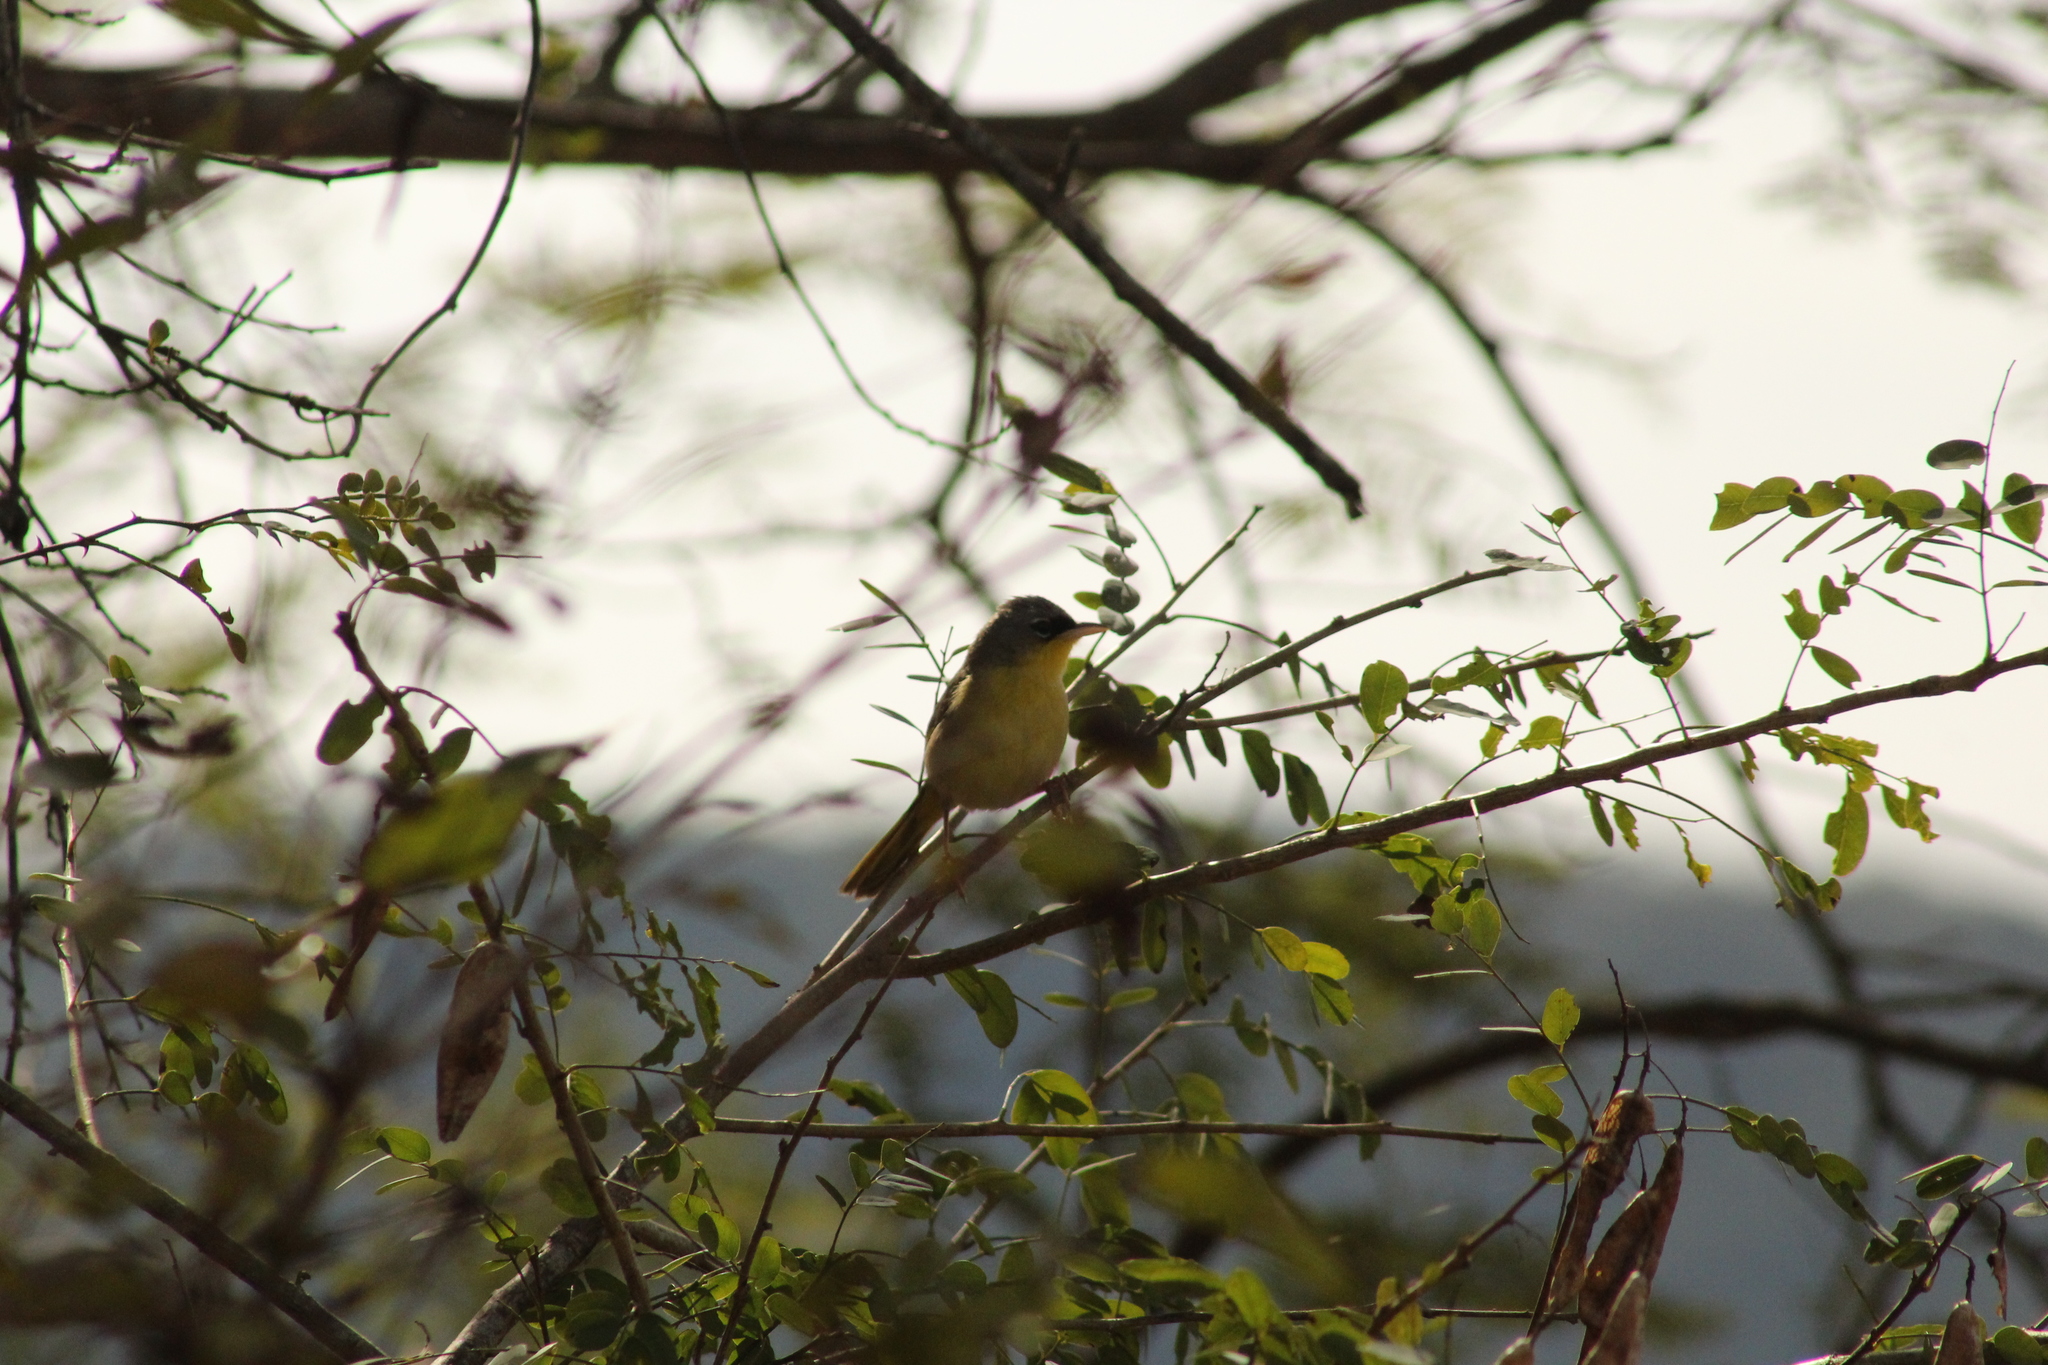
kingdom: Animalia
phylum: Chordata
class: Aves
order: Passeriformes
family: Parulidae
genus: Geothlypis
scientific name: Geothlypis poliocephala
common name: Gray-crowned yellowthroat
